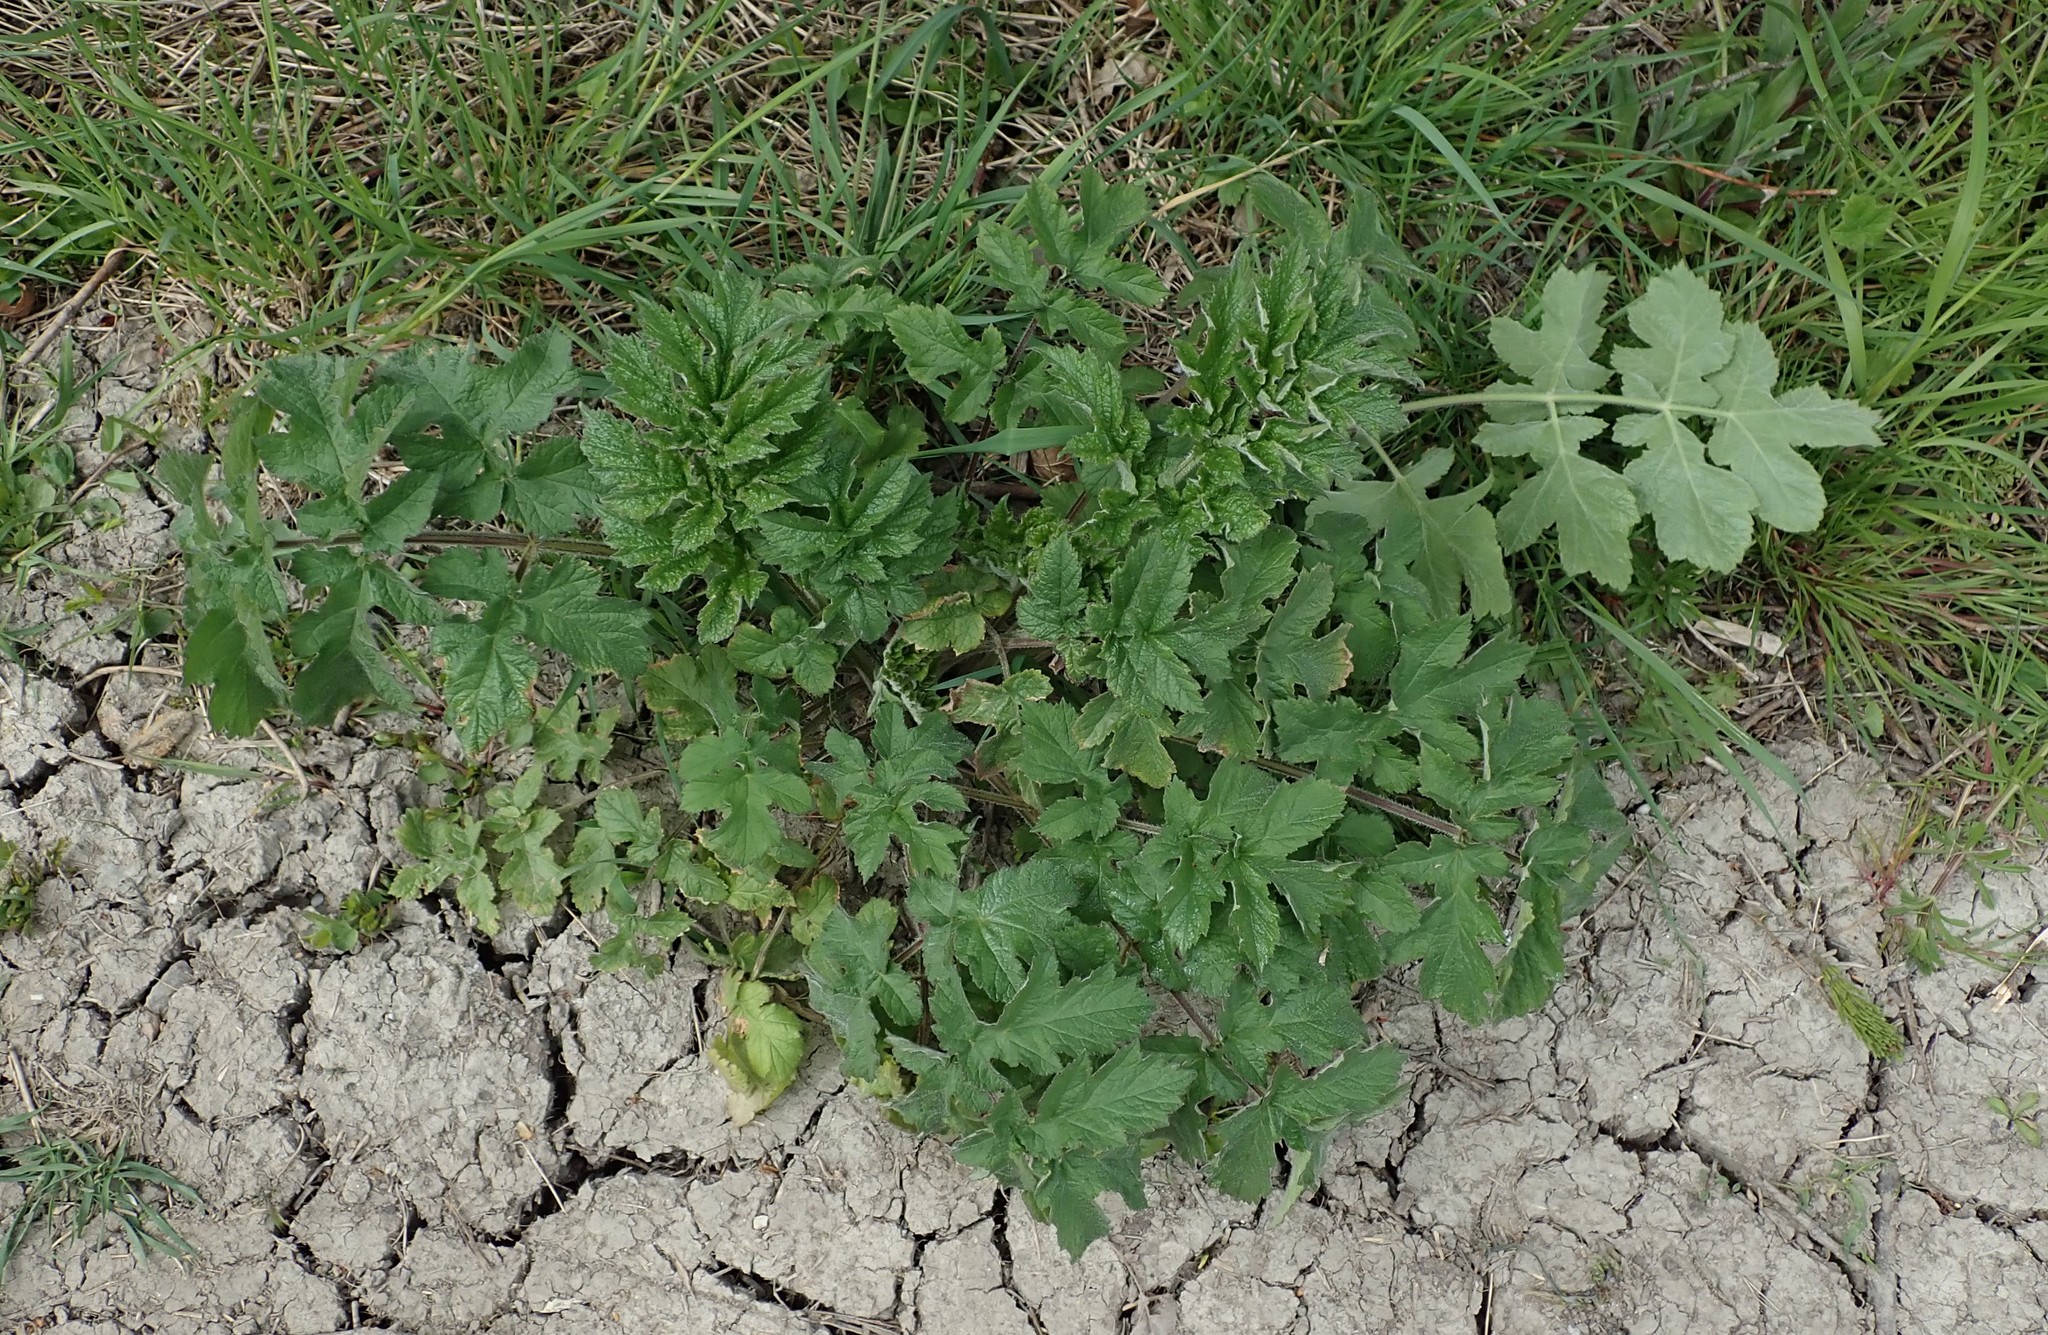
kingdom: Plantae
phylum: Tracheophyta
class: Magnoliopsida
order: Apiales
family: Apiaceae
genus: Heracleum
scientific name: Heracleum sphondylium
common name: Hogweed
